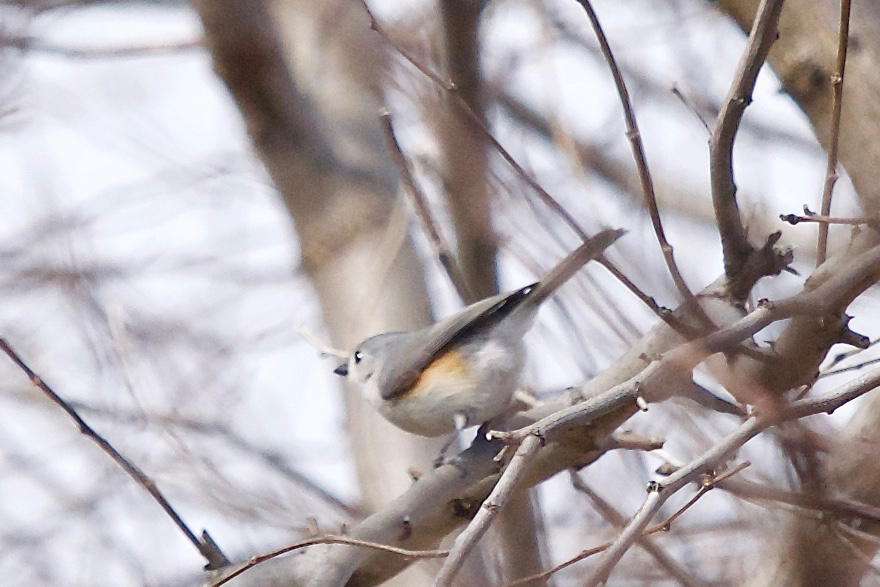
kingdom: Animalia
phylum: Chordata
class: Aves
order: Passeriformes
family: Paridae
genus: Baeolophus
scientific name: Baeolophus bicolor
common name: Tufted titmouse
